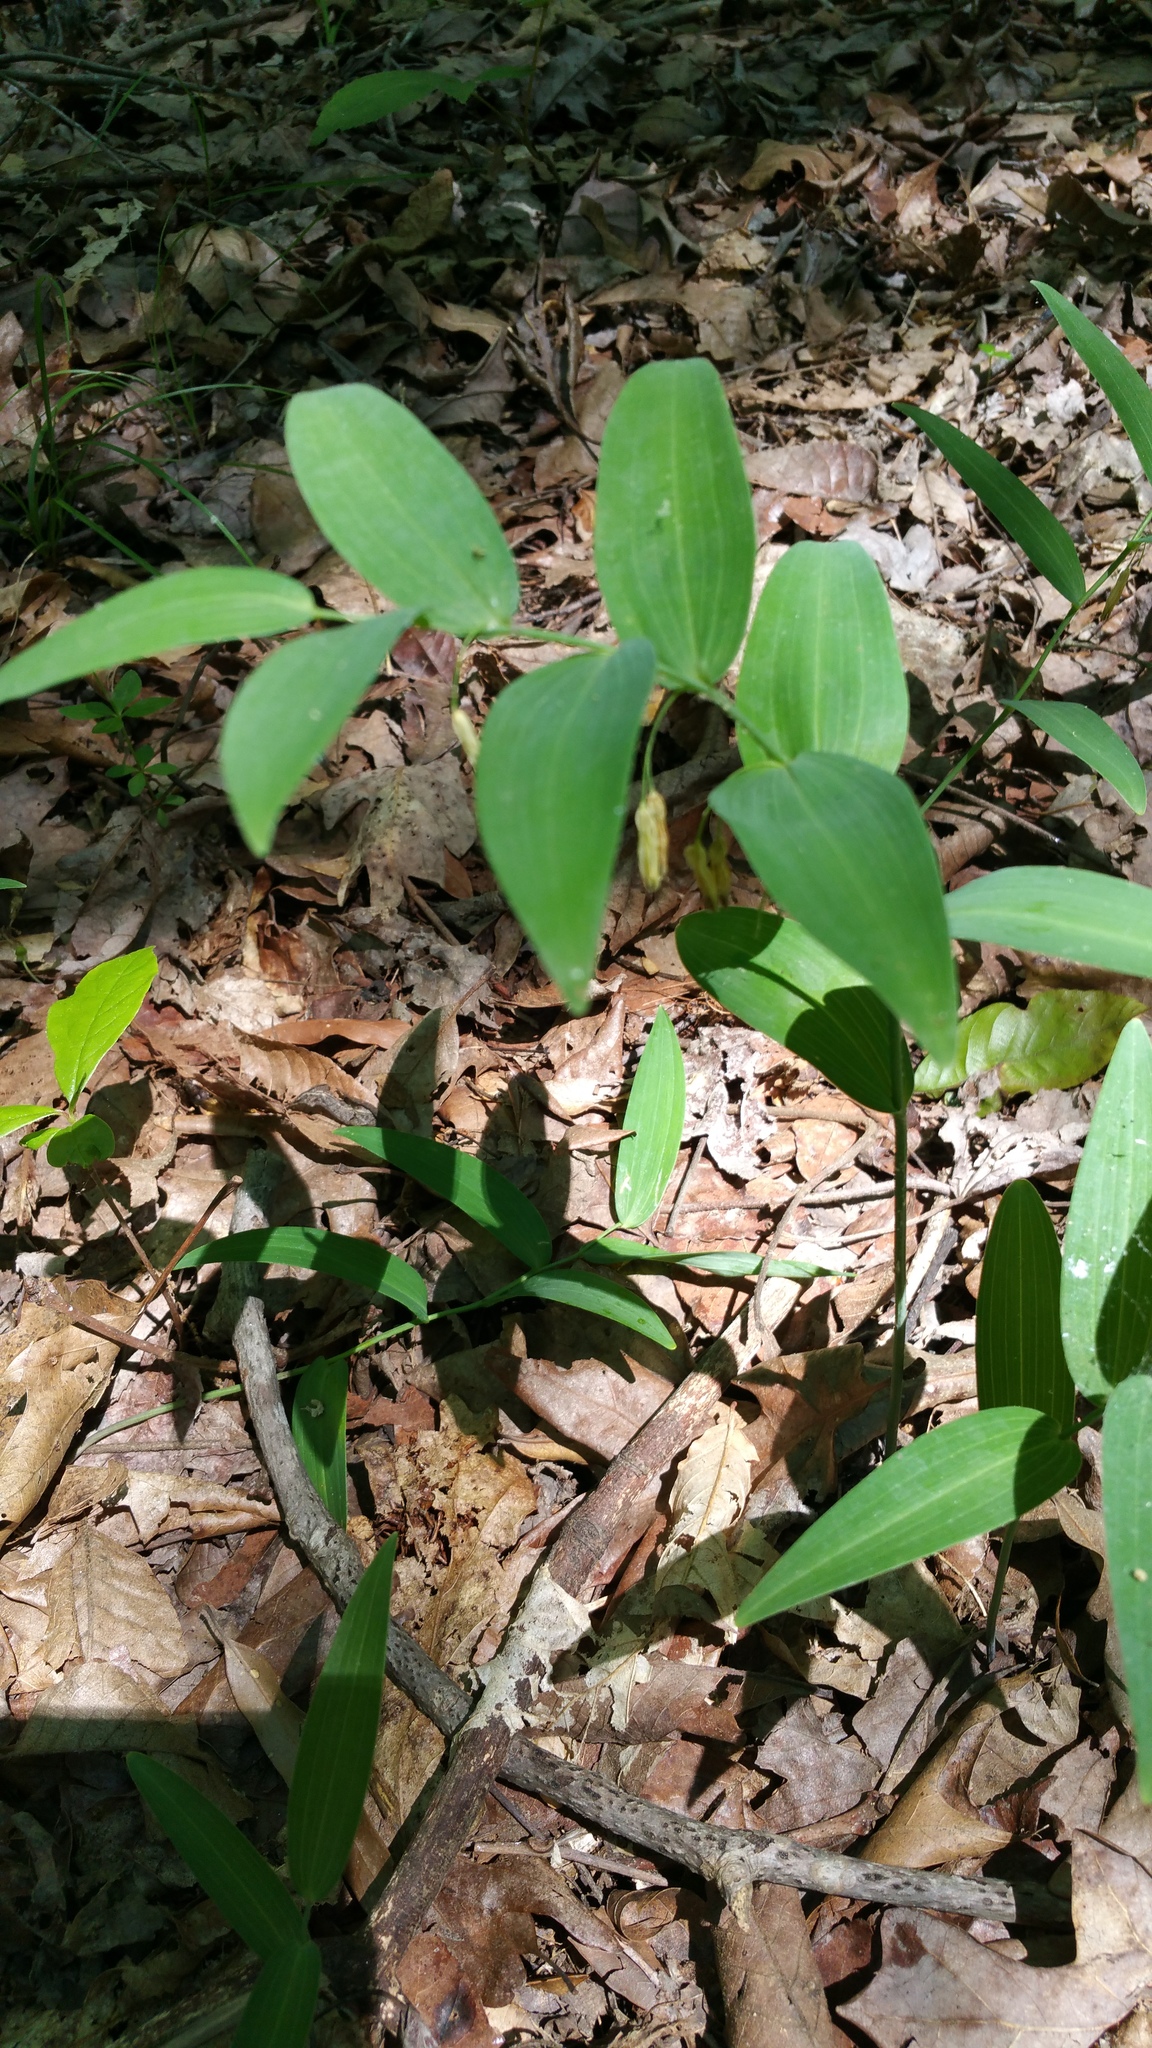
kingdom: Plantae
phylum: Tracheophyta
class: Liliopsida
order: Asparagales
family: Asparagaceae
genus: Polygonatum
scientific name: Polygonatum biflorum
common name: American solomon's-seal
